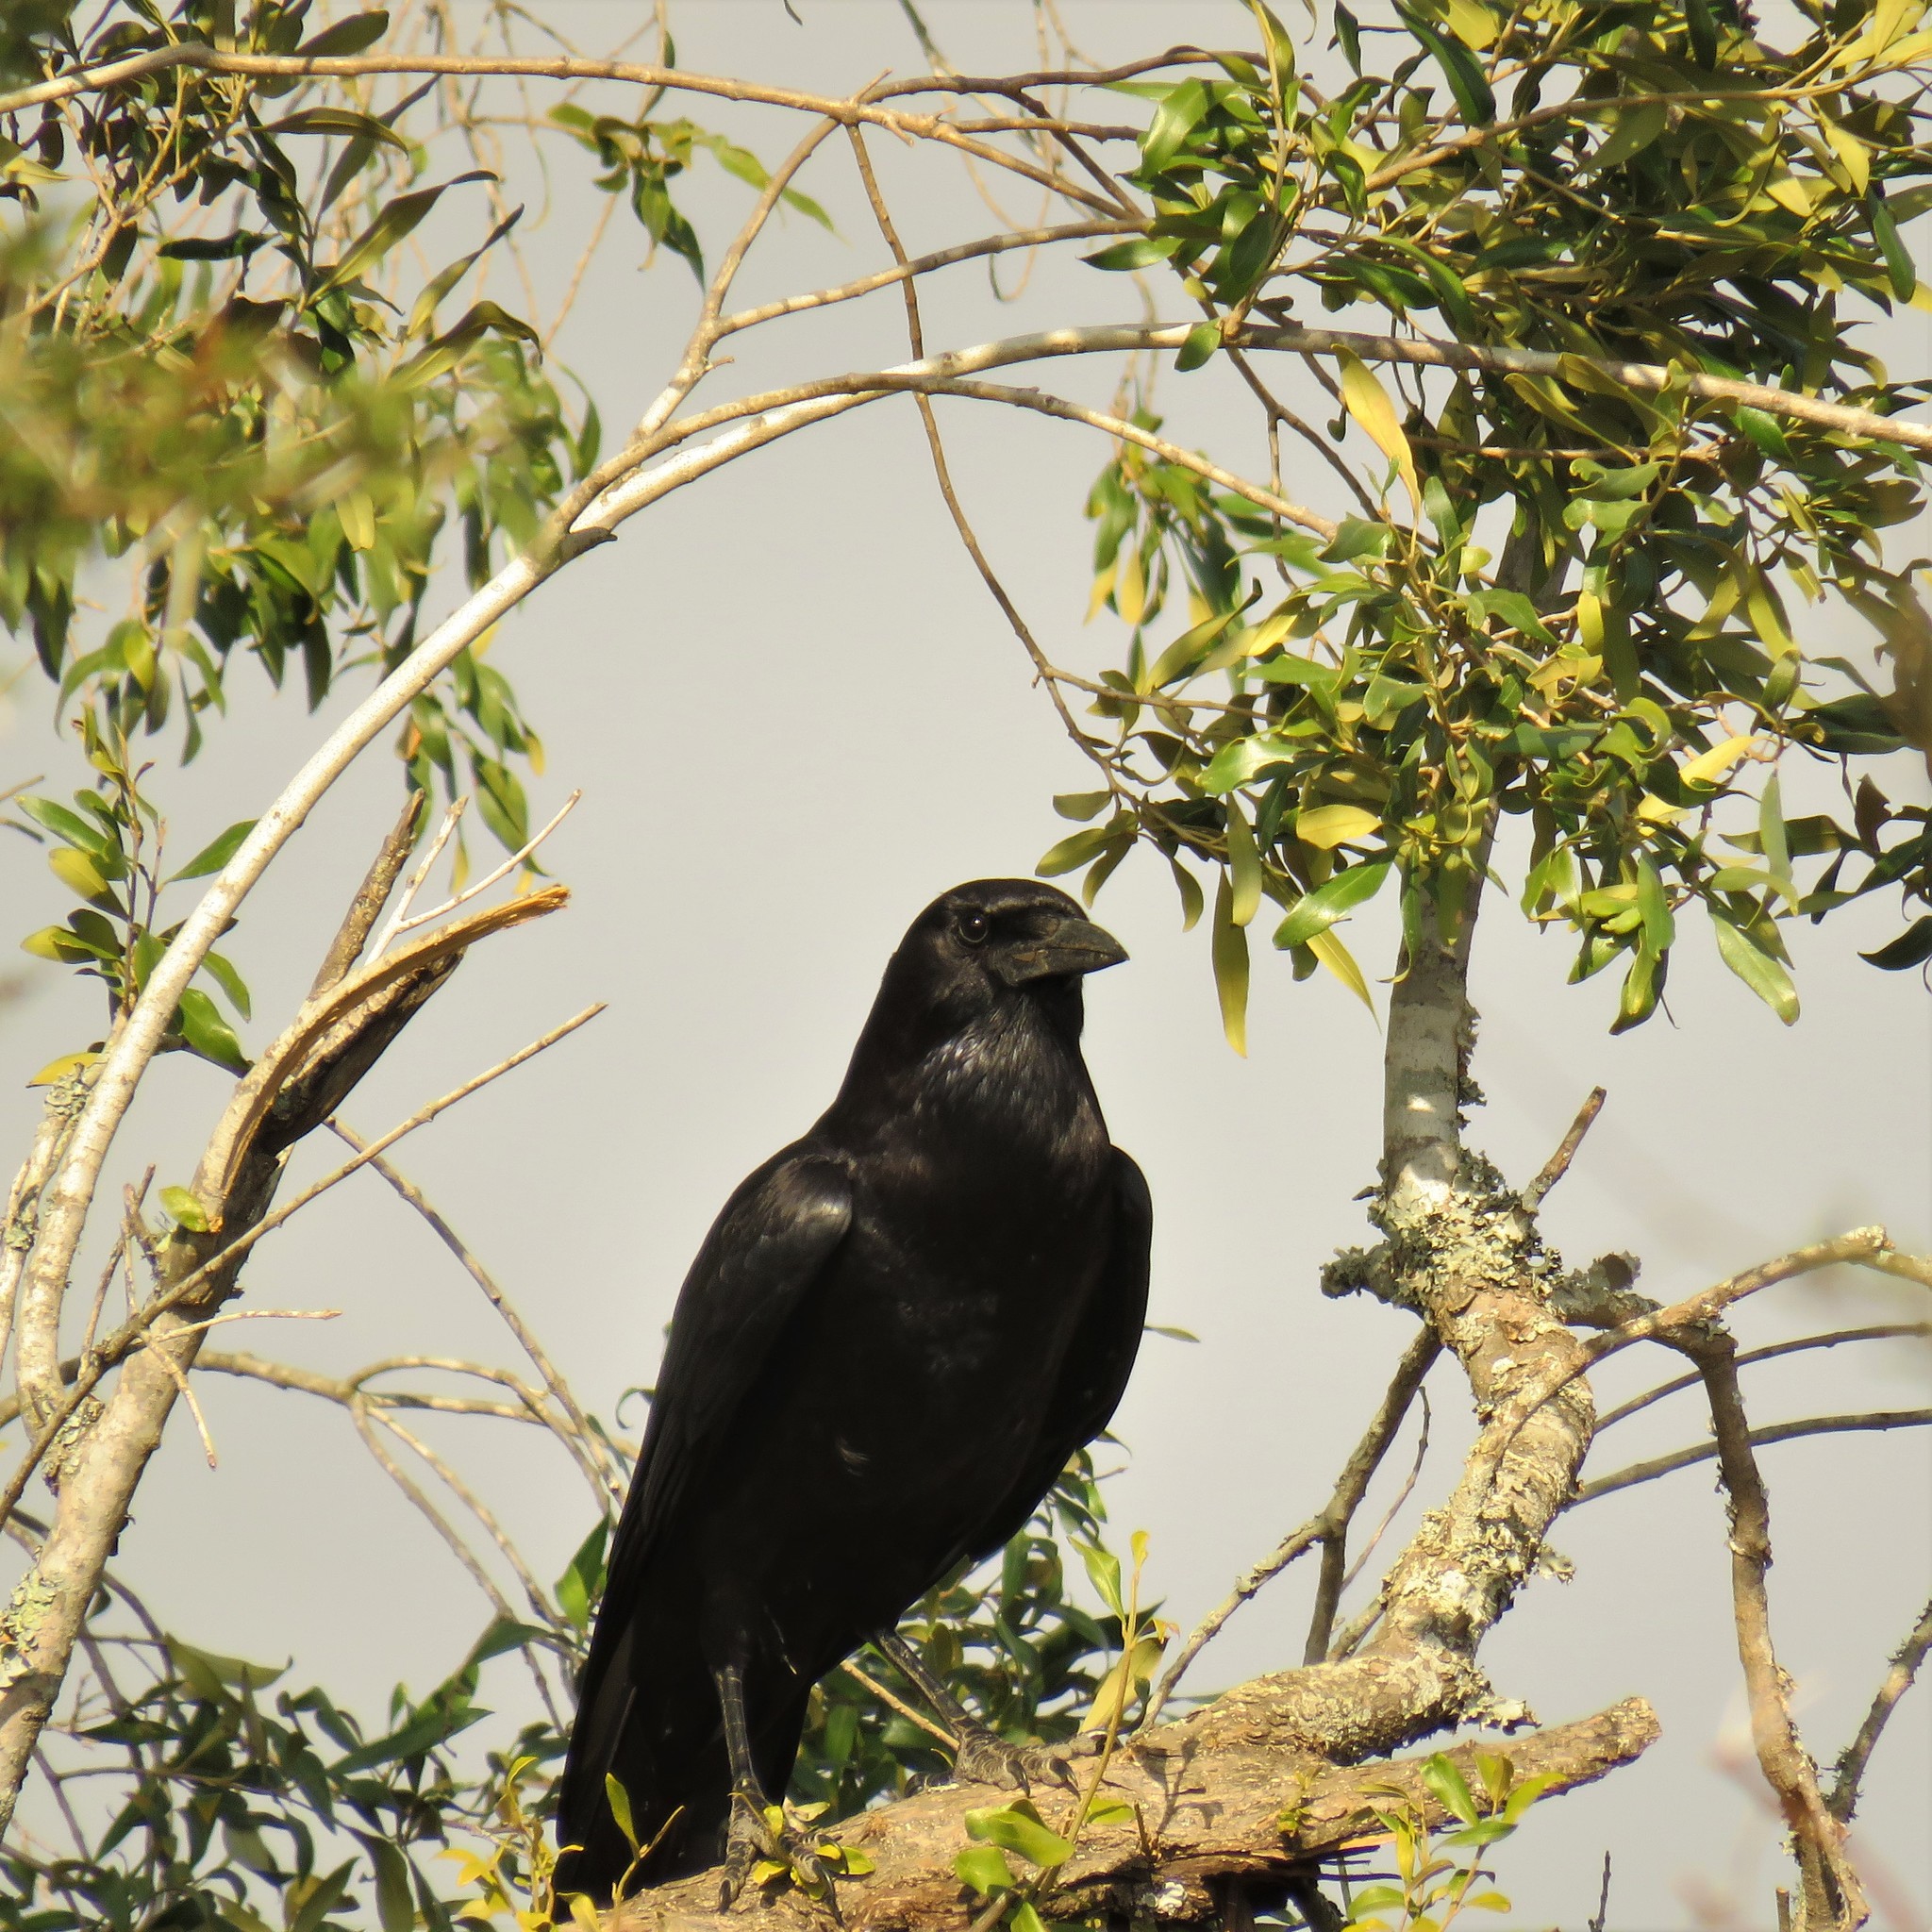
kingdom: Animalia
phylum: Chordata
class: Aves
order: Passeriformes
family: Corvidae
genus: Corvus
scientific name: Corvus capensis
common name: Cape crow
